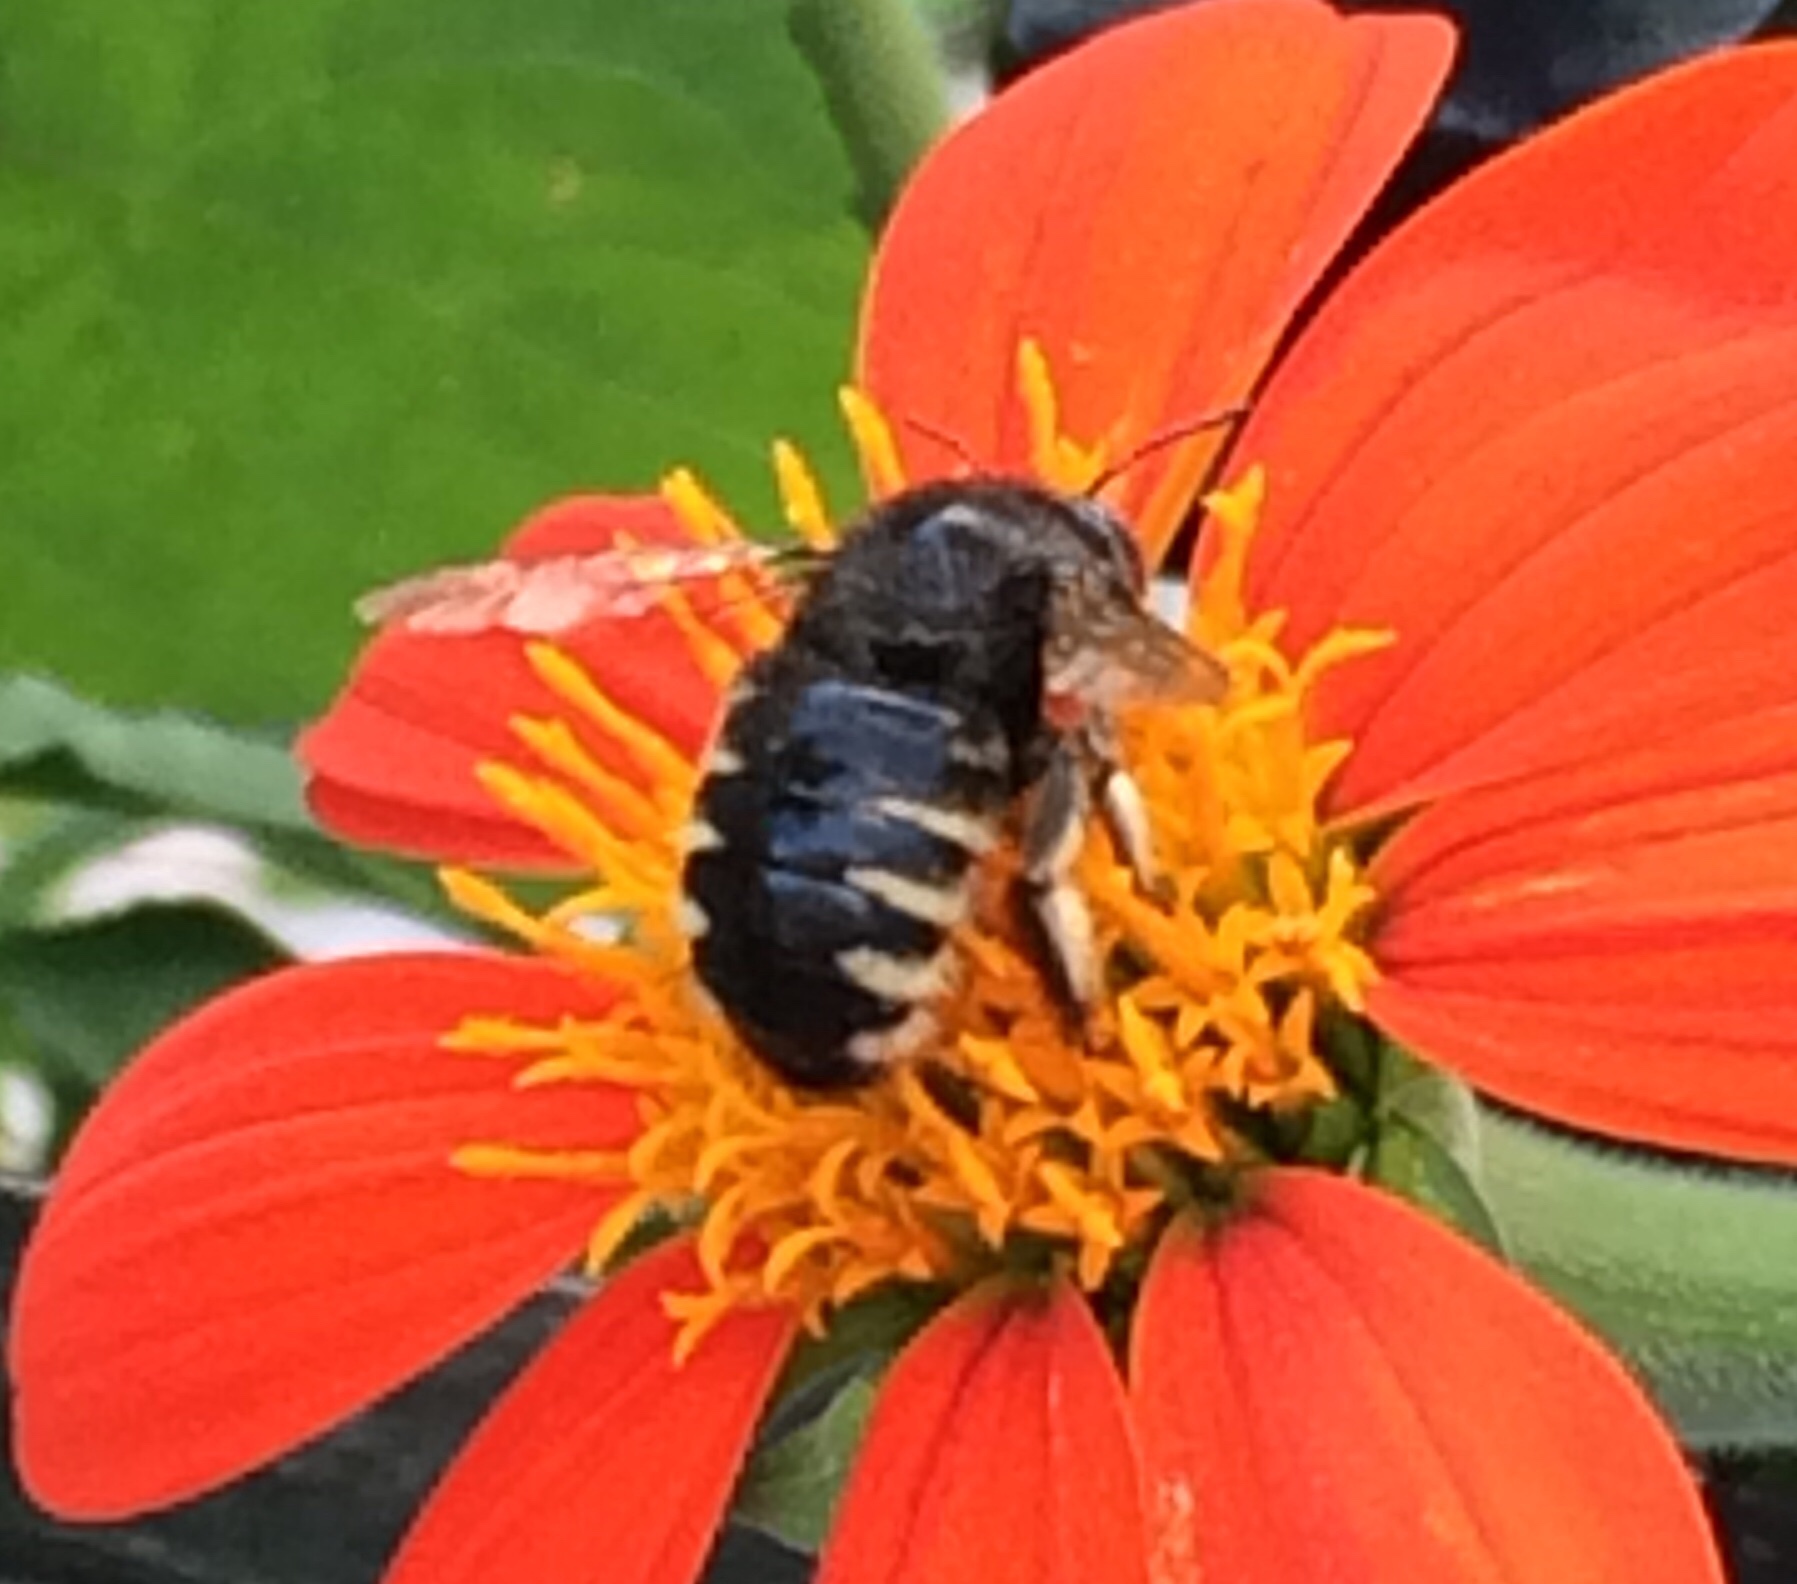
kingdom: Animalia
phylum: Arthropoda
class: Insecta
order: Hymenoptera
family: Apidae
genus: Xylocopa
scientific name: Xylocopa tabaniformis
